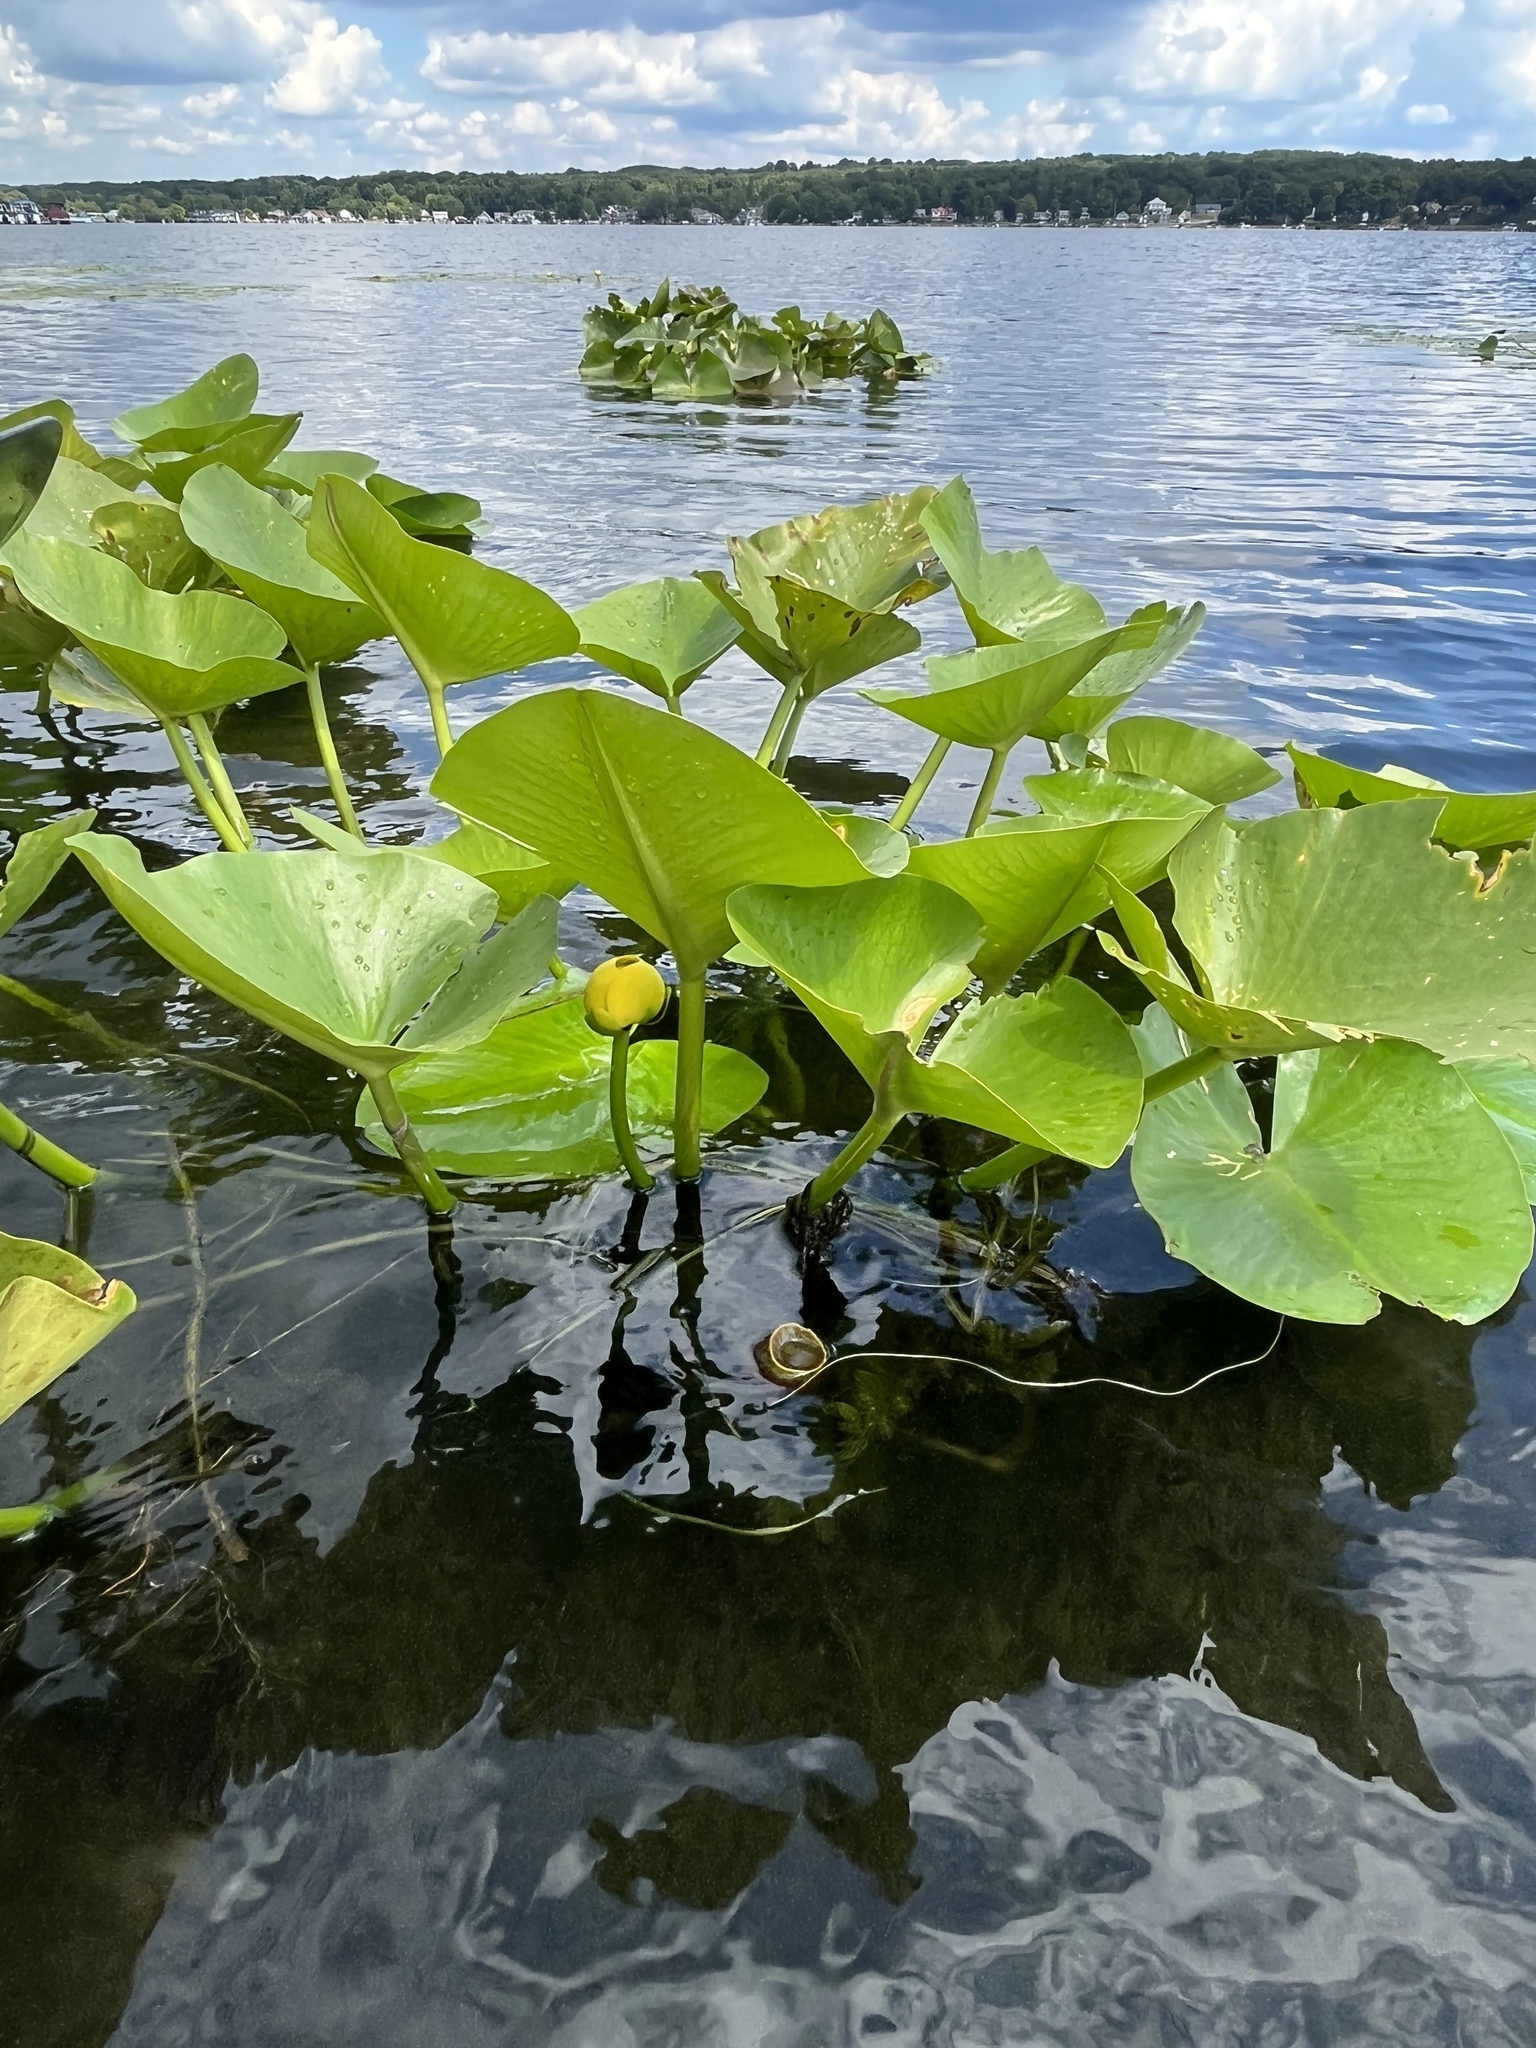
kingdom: Plantae
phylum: Tracheophyta
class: Magnoliopsida
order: Nymphaeales
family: Nymphaeaceae
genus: Nuphar
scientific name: Nuphar advena
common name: Spatter-dock
